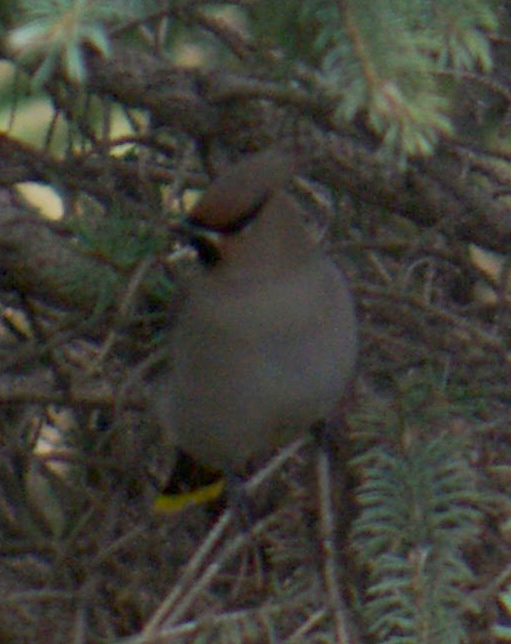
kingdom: Animalia
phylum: Chordata
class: Aves
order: Passeriformes
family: Bombycillidae
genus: Bombycilla
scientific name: Bombycilla garrulus
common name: Bohemian waxwing
